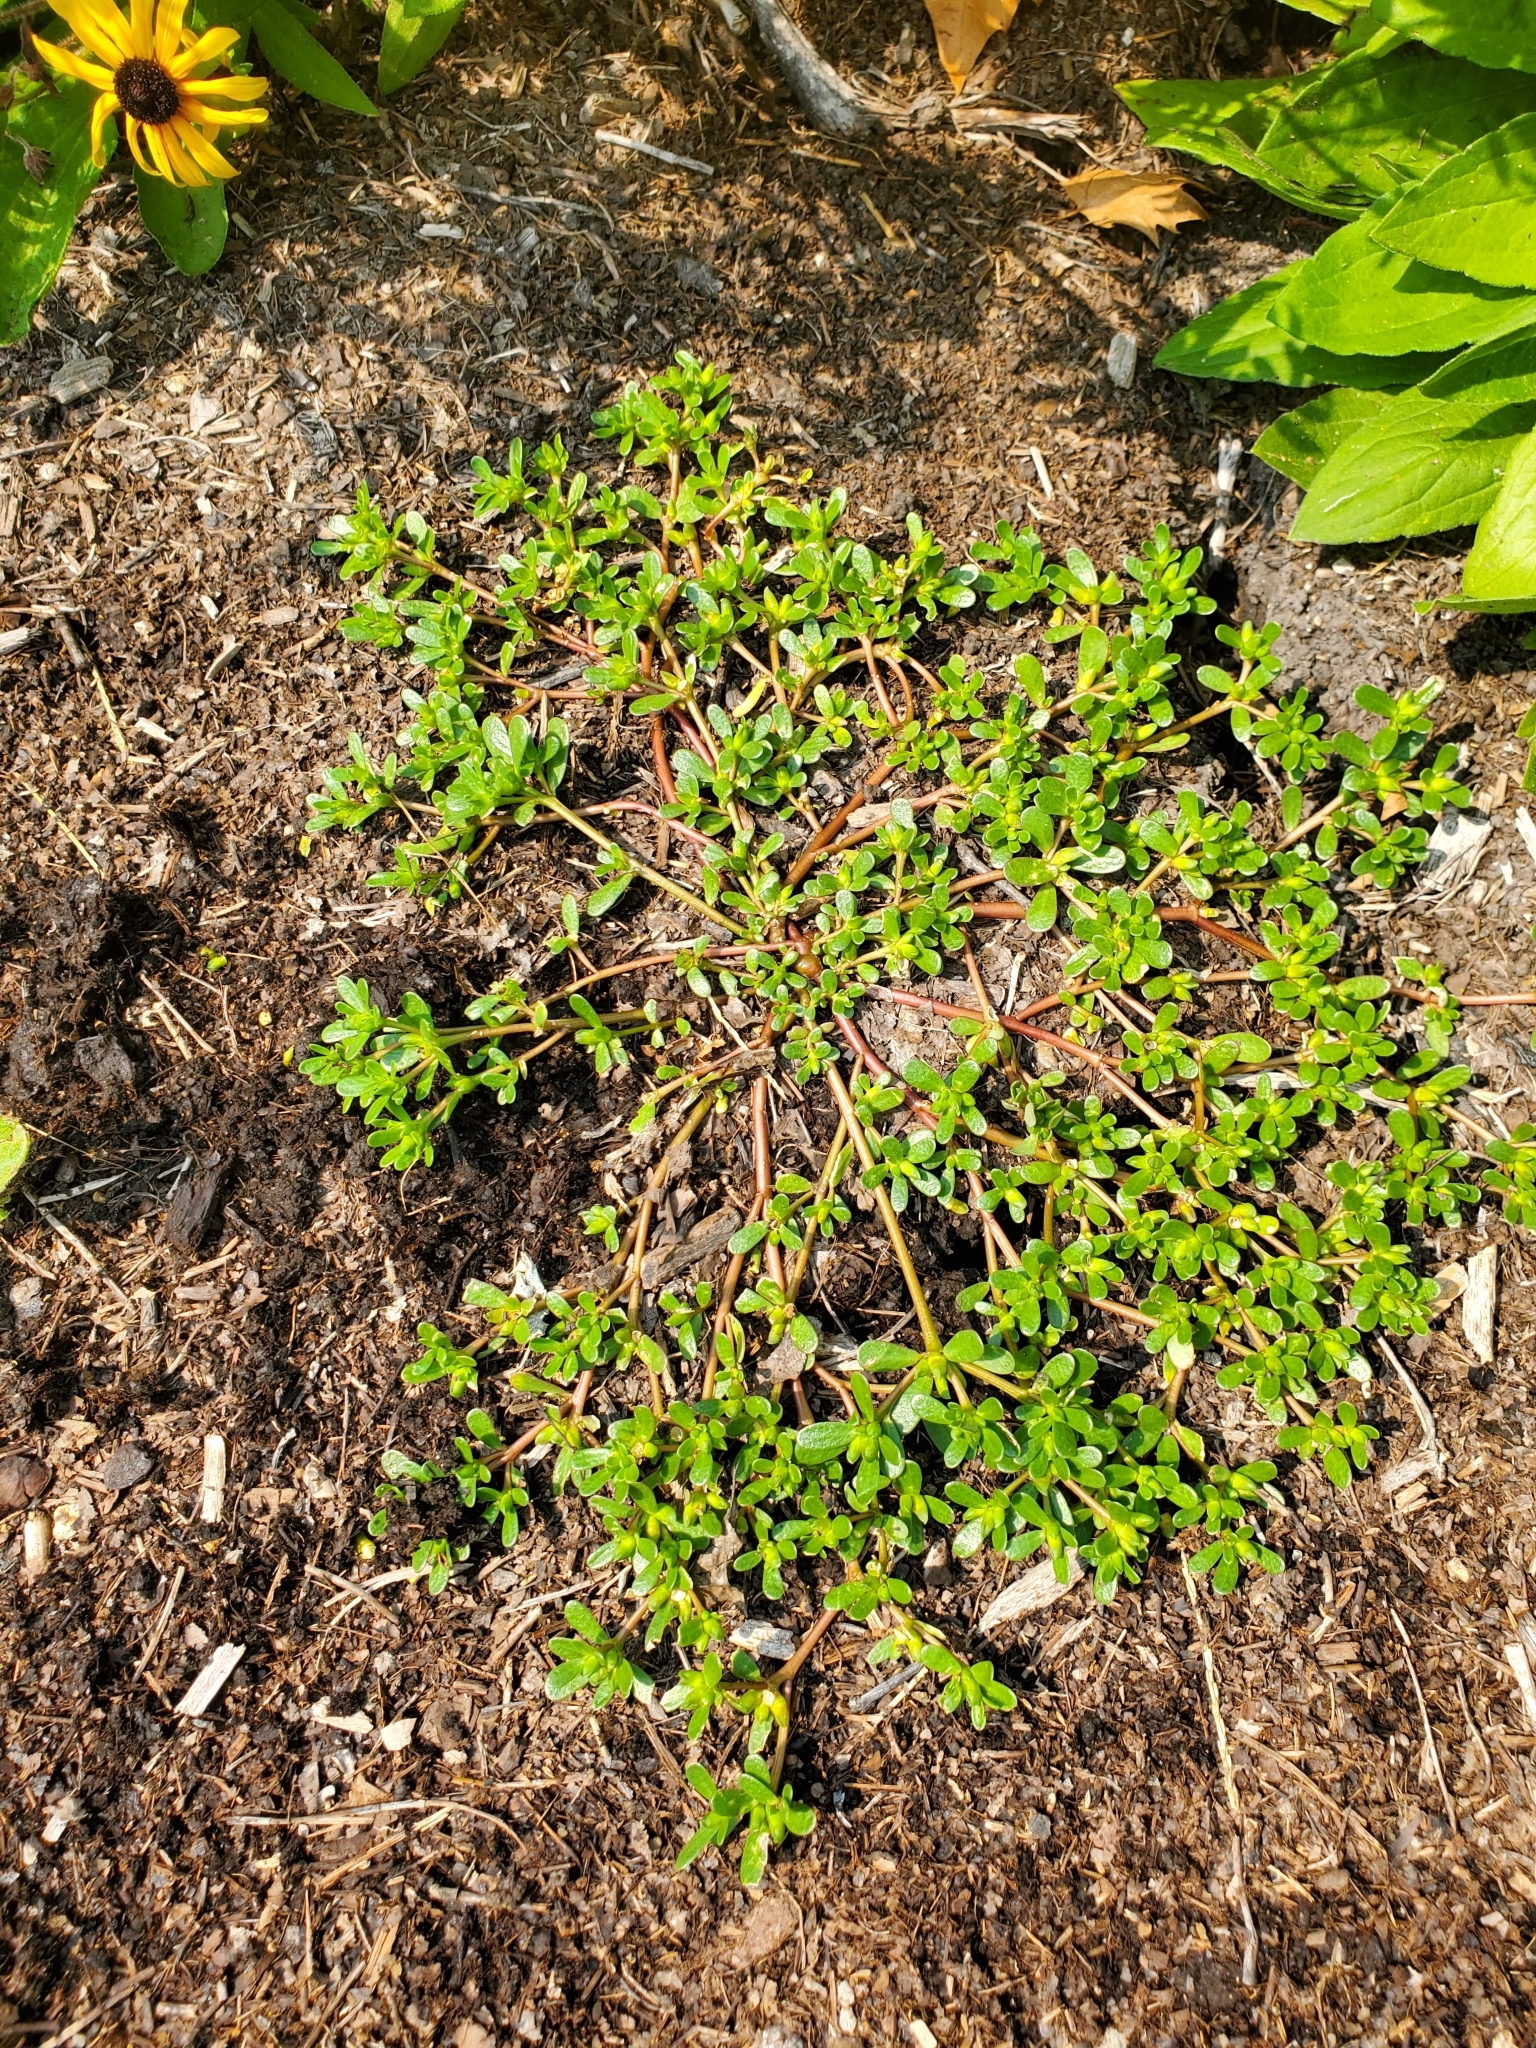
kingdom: Plantae
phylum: Tracheophyta
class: Magnoliopsida
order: Caryophyllales
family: Portulacaceae
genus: Portulaca
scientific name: Portulaca oleracea
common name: Common purslane
